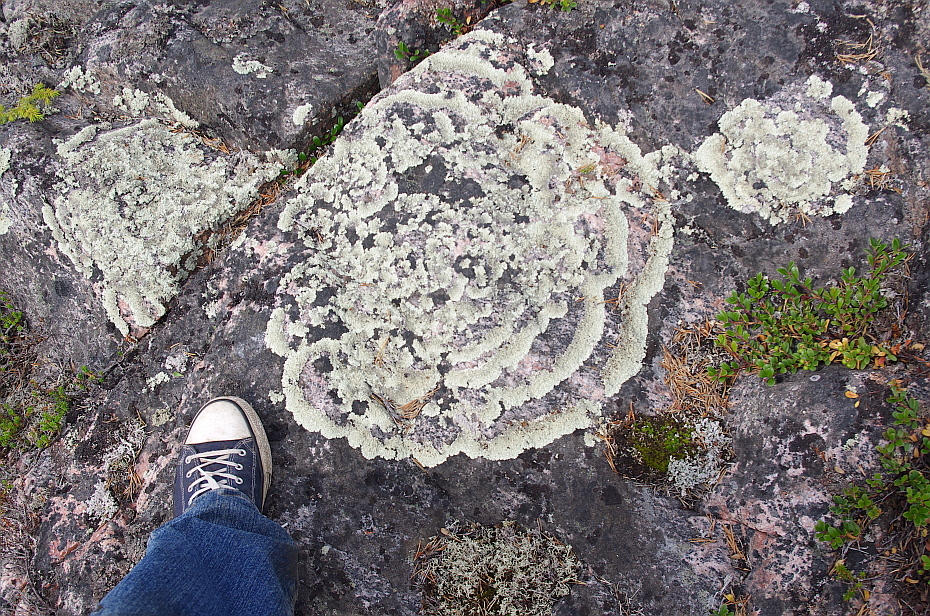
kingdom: Fungi
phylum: Ascomycota
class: Lecanoromycetes
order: Lecanorales
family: Parmeliaceae
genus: Arctoparmelia
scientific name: Arctoparmelia centrifuga
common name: Concentric ring lichen
